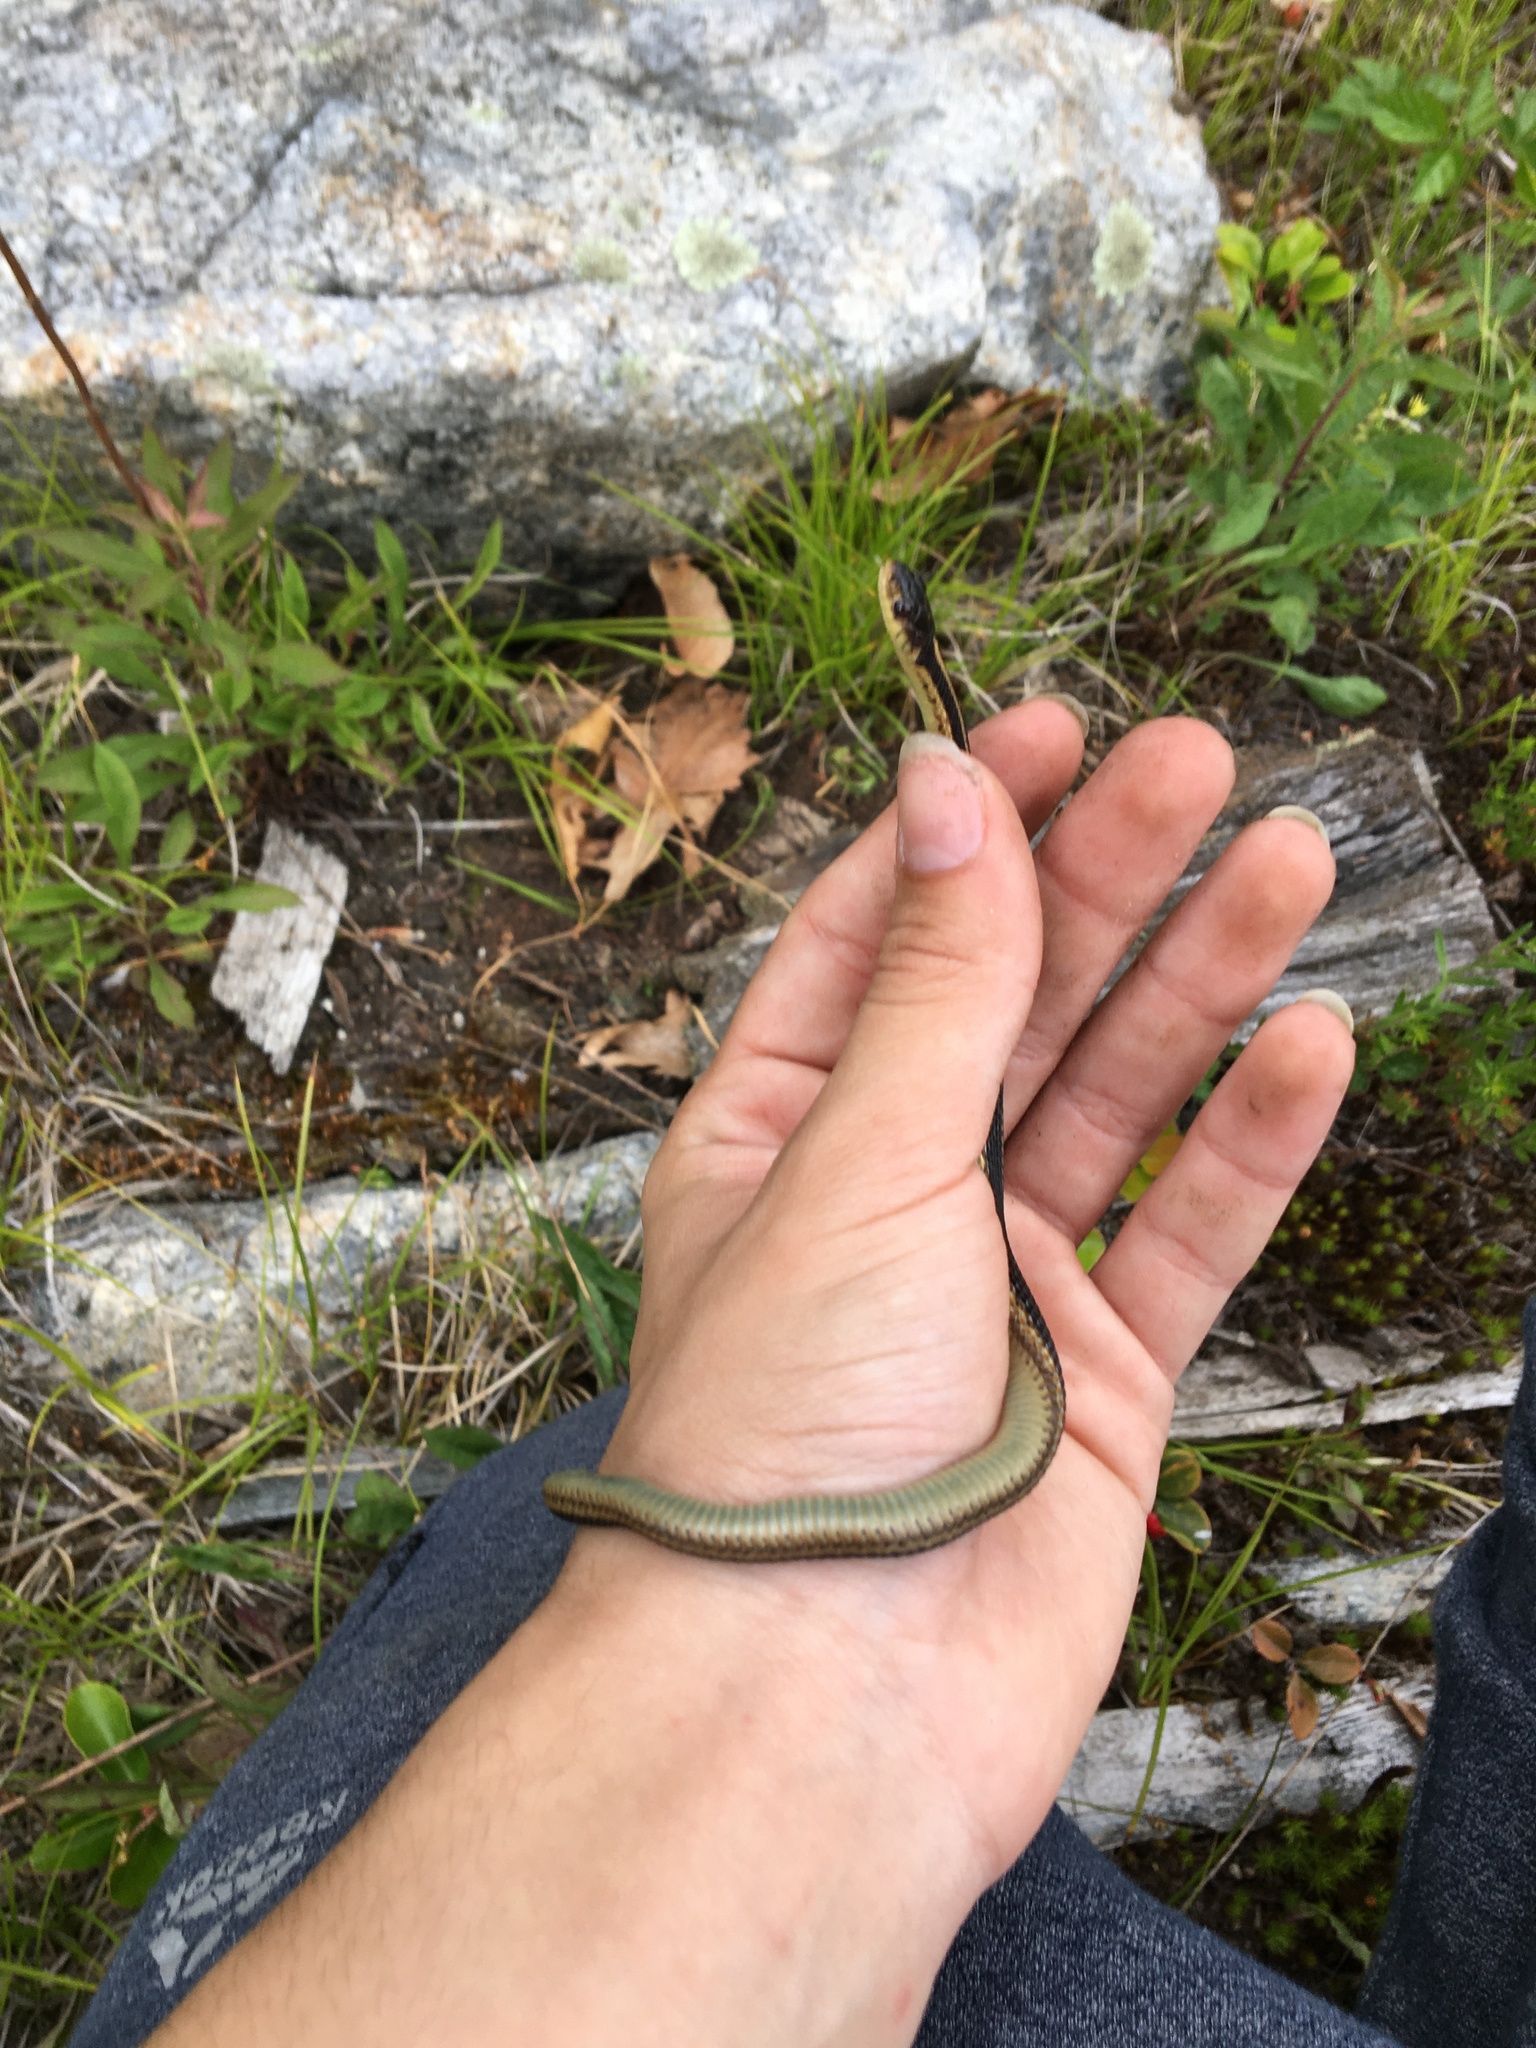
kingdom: Animalia
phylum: Chordata
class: Squamata
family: Colubridae
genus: Thamnophis
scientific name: Thamnophis sirtalis
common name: Common garter snake
